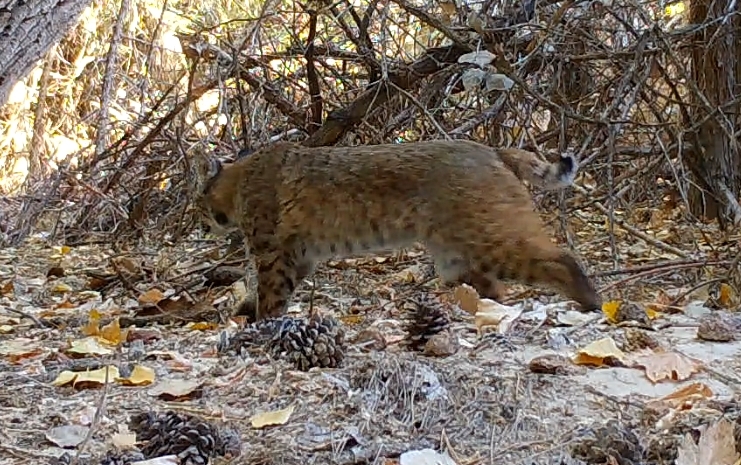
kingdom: Animalia
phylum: Chordata
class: Mammalia
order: Carnivora
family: Felidae
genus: Lynx
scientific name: Lynx rufus
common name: Bobcat
